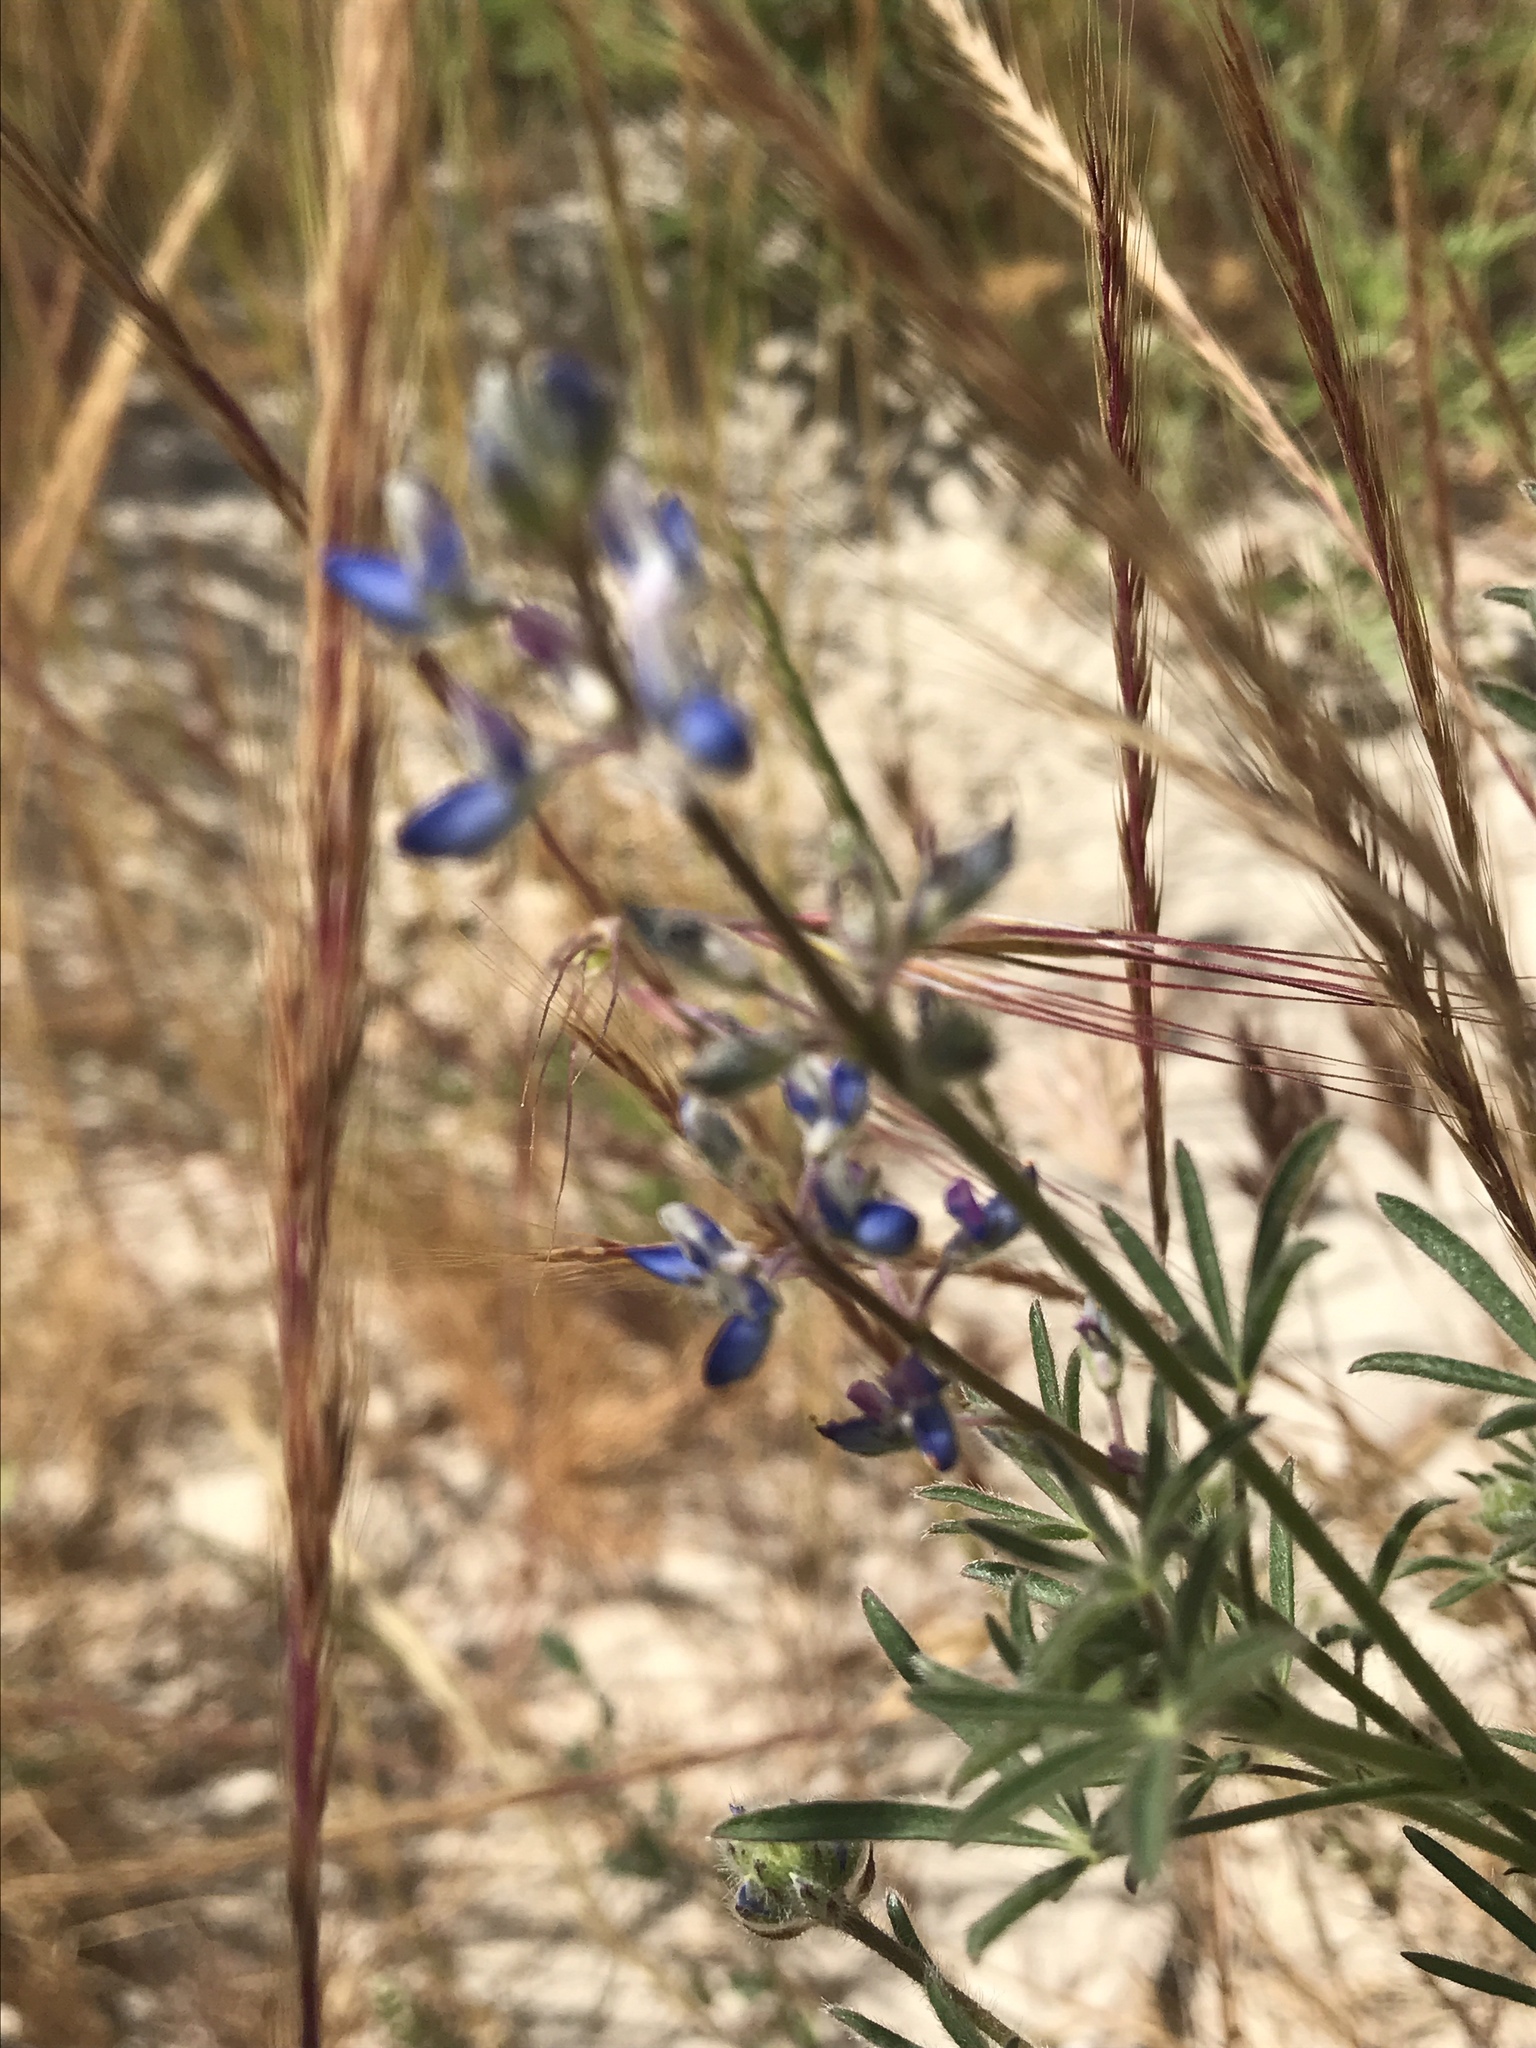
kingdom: Plantae
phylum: Tracheophyta
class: Magnoliopsida
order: Fabales
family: Fabaceae
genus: Lupinus
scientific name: Lupinus bicolor
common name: Miniature lupine
